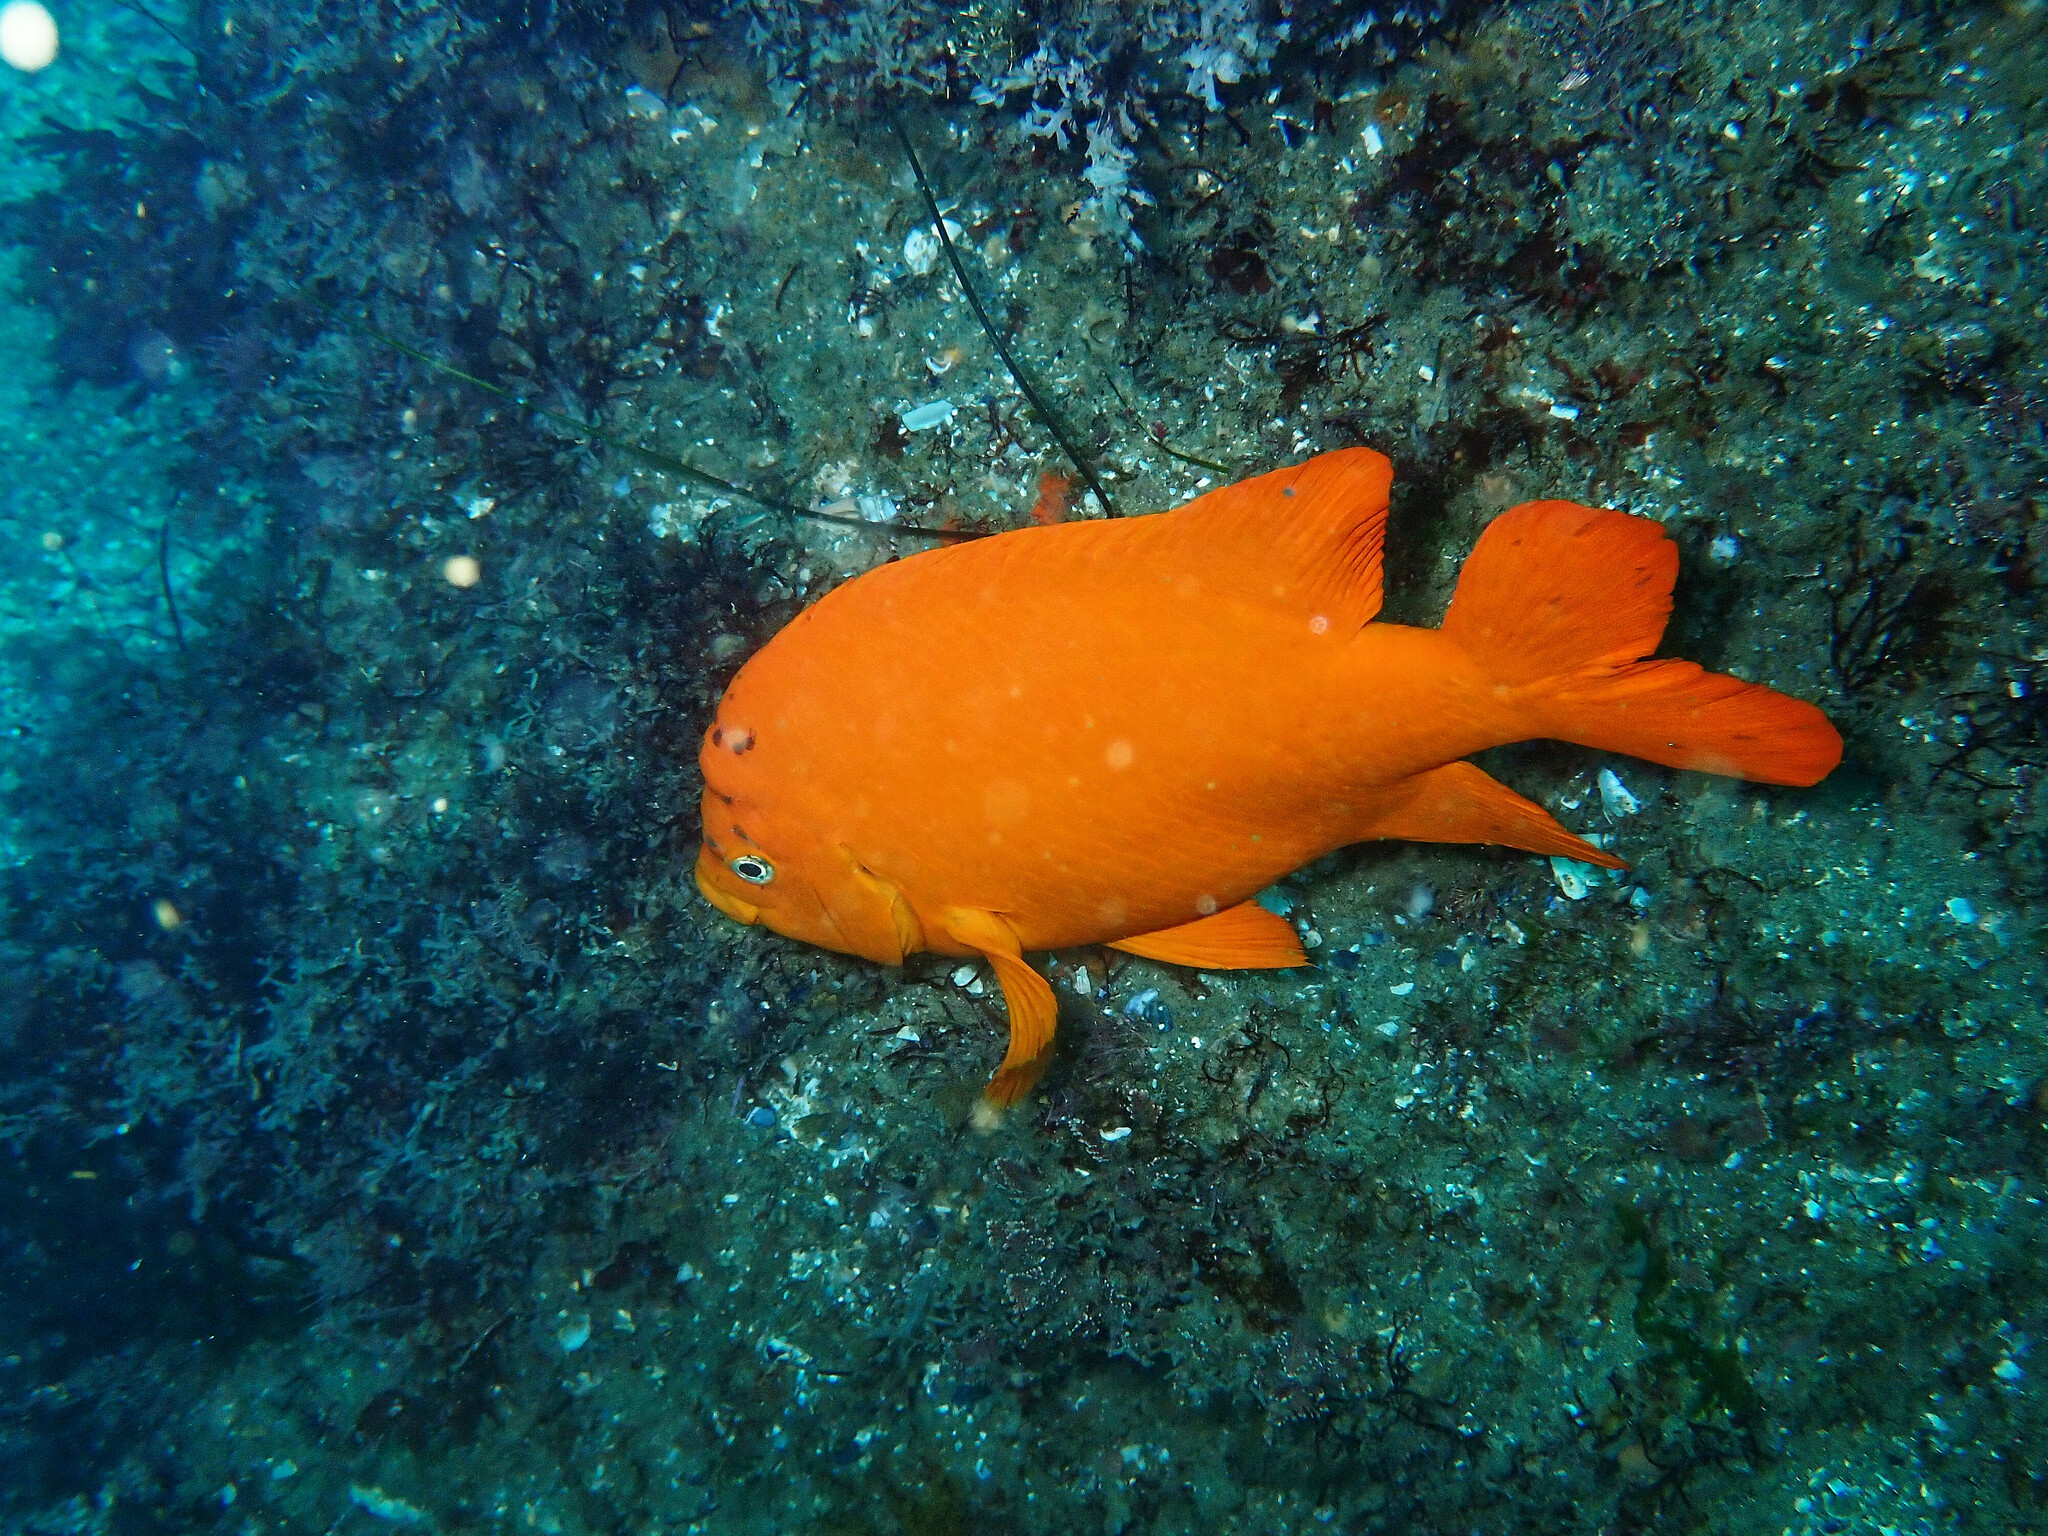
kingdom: Animalia
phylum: Chordata
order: Perciformes
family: Pomacentridae
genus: Hypsypops
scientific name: Hypsypops rubicundus
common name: Garibaldi
